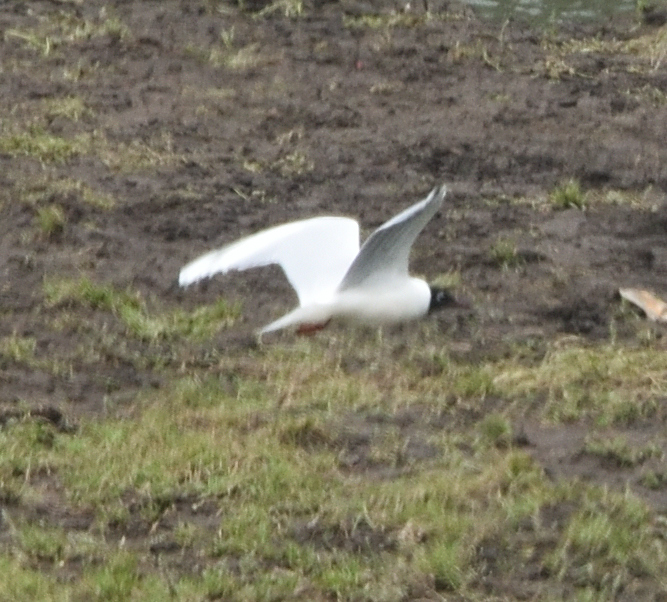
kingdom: Animalia
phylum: Chordata
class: Aves
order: Charadriiformes
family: Laridae
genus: Chroicocephalus
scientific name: Chroicocephalus serranus
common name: Andean gull
